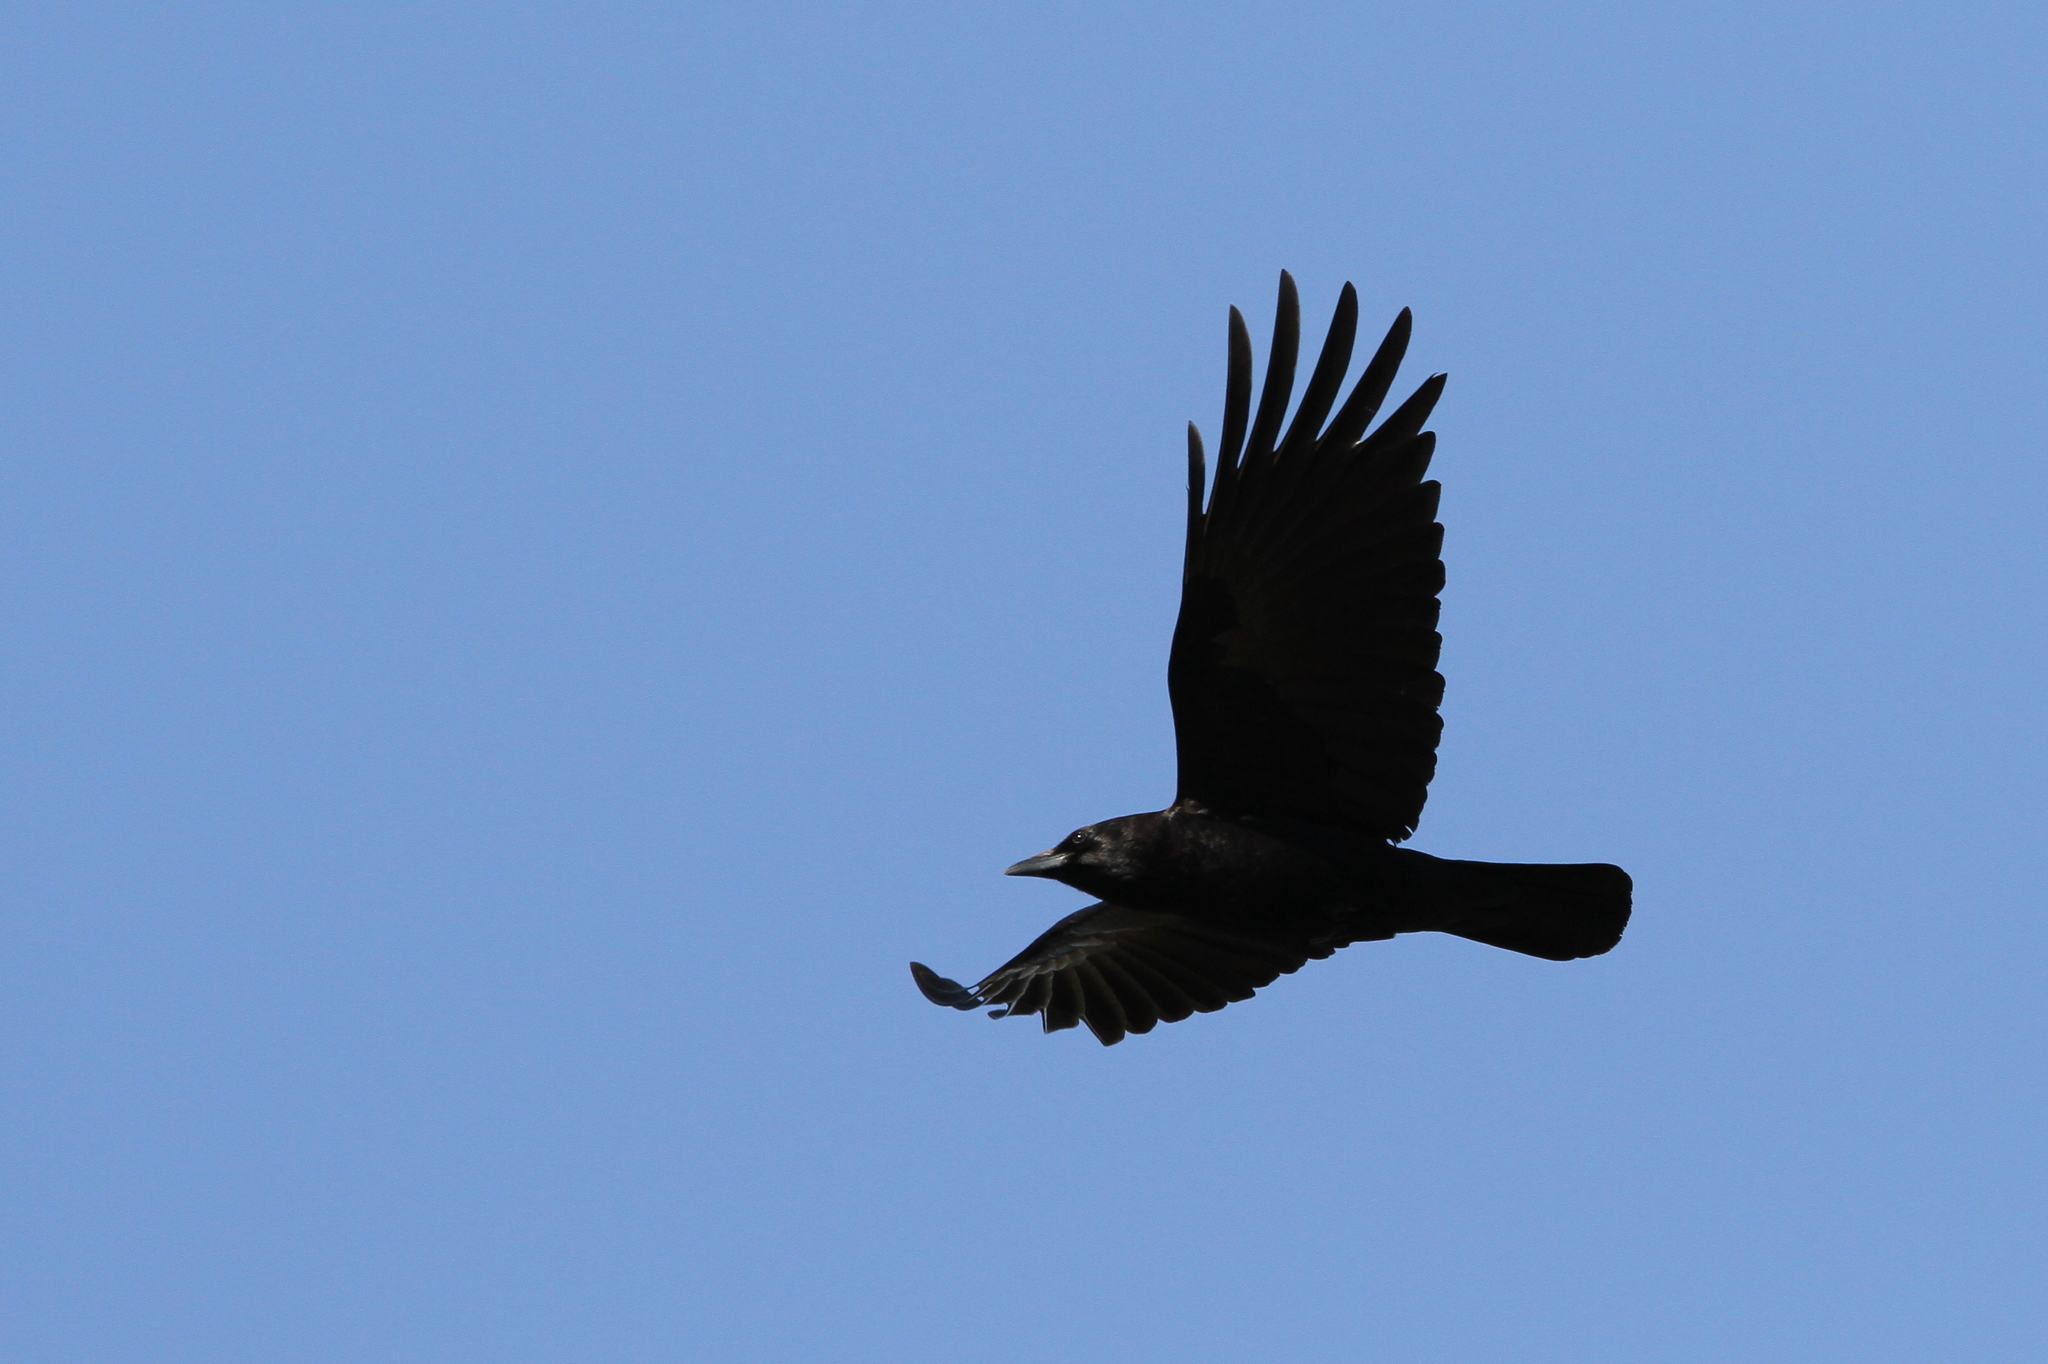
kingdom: Animalia
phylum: Chordata
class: Aves
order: Passeriformes
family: Corvidae
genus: Corvus
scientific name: Corvus brachyrhynchos
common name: American crow
